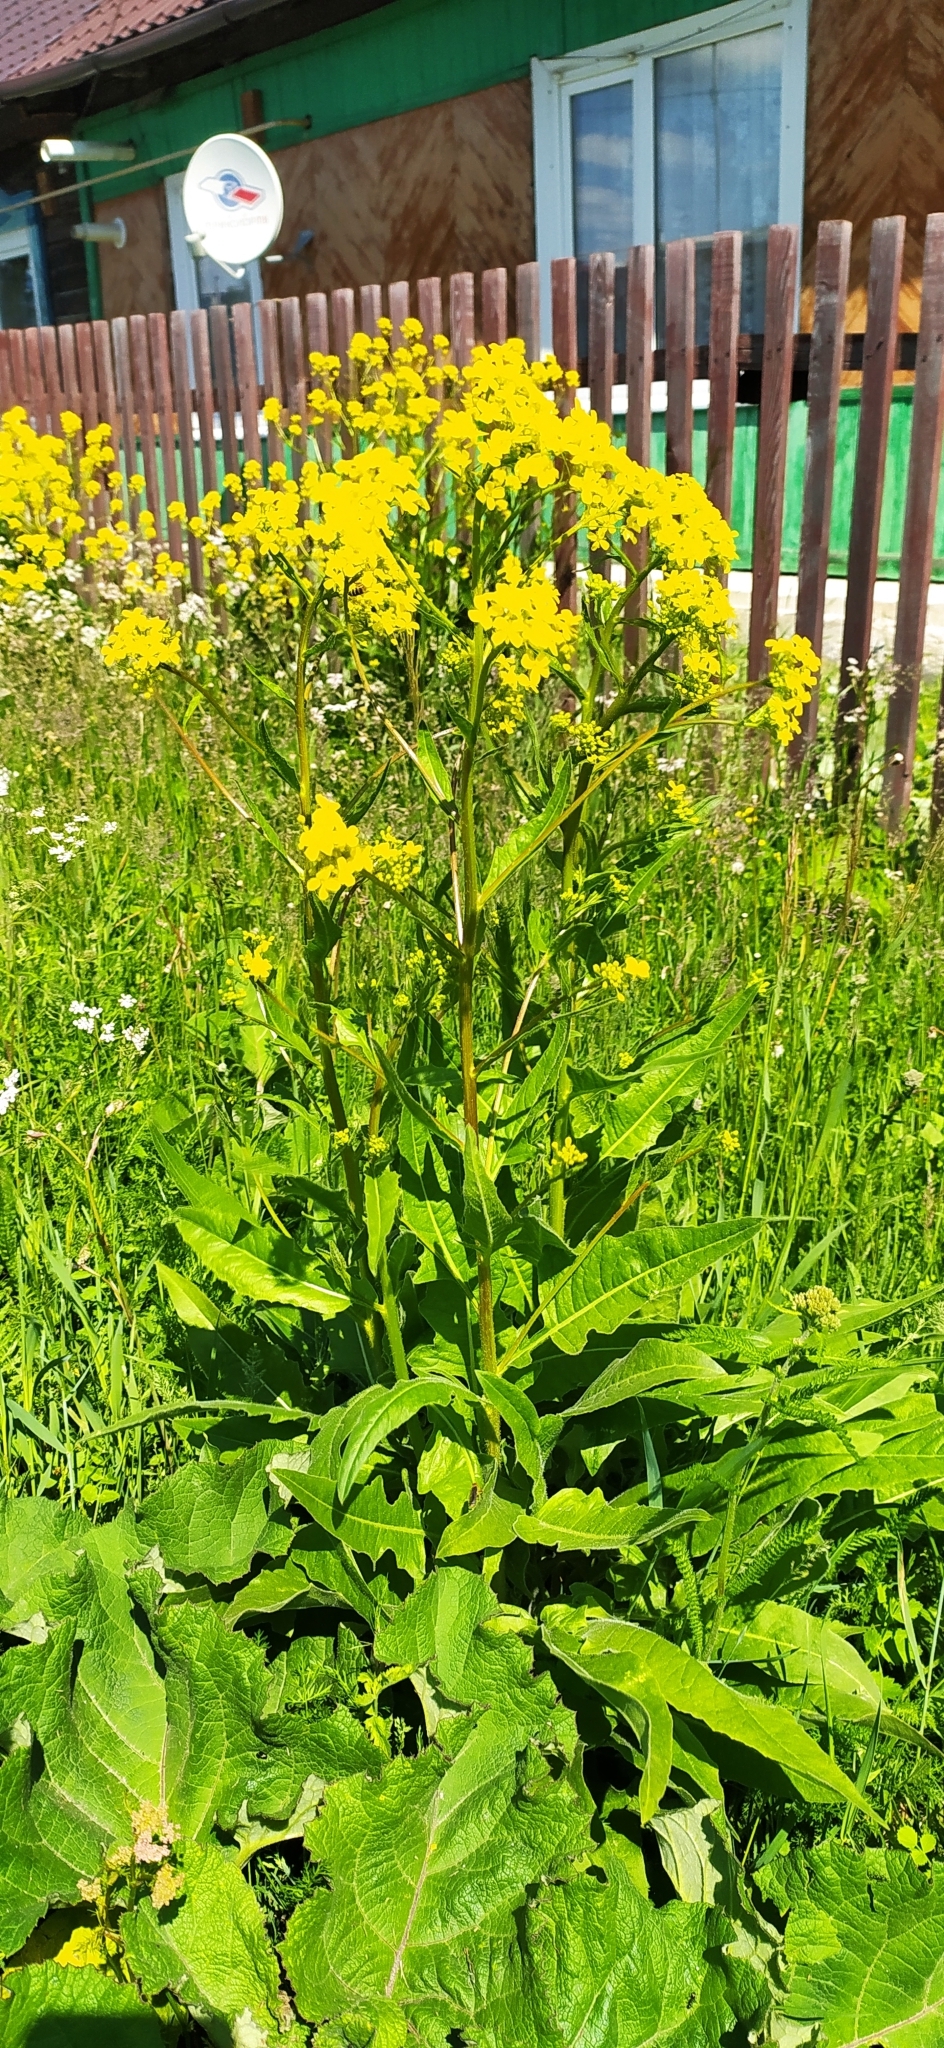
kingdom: Plantae
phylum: Tracheophyta
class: Magnoliopsida
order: Brassicales
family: Brassicaceae
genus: Bunias
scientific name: Bunias orientalis
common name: Warty-cabbage
